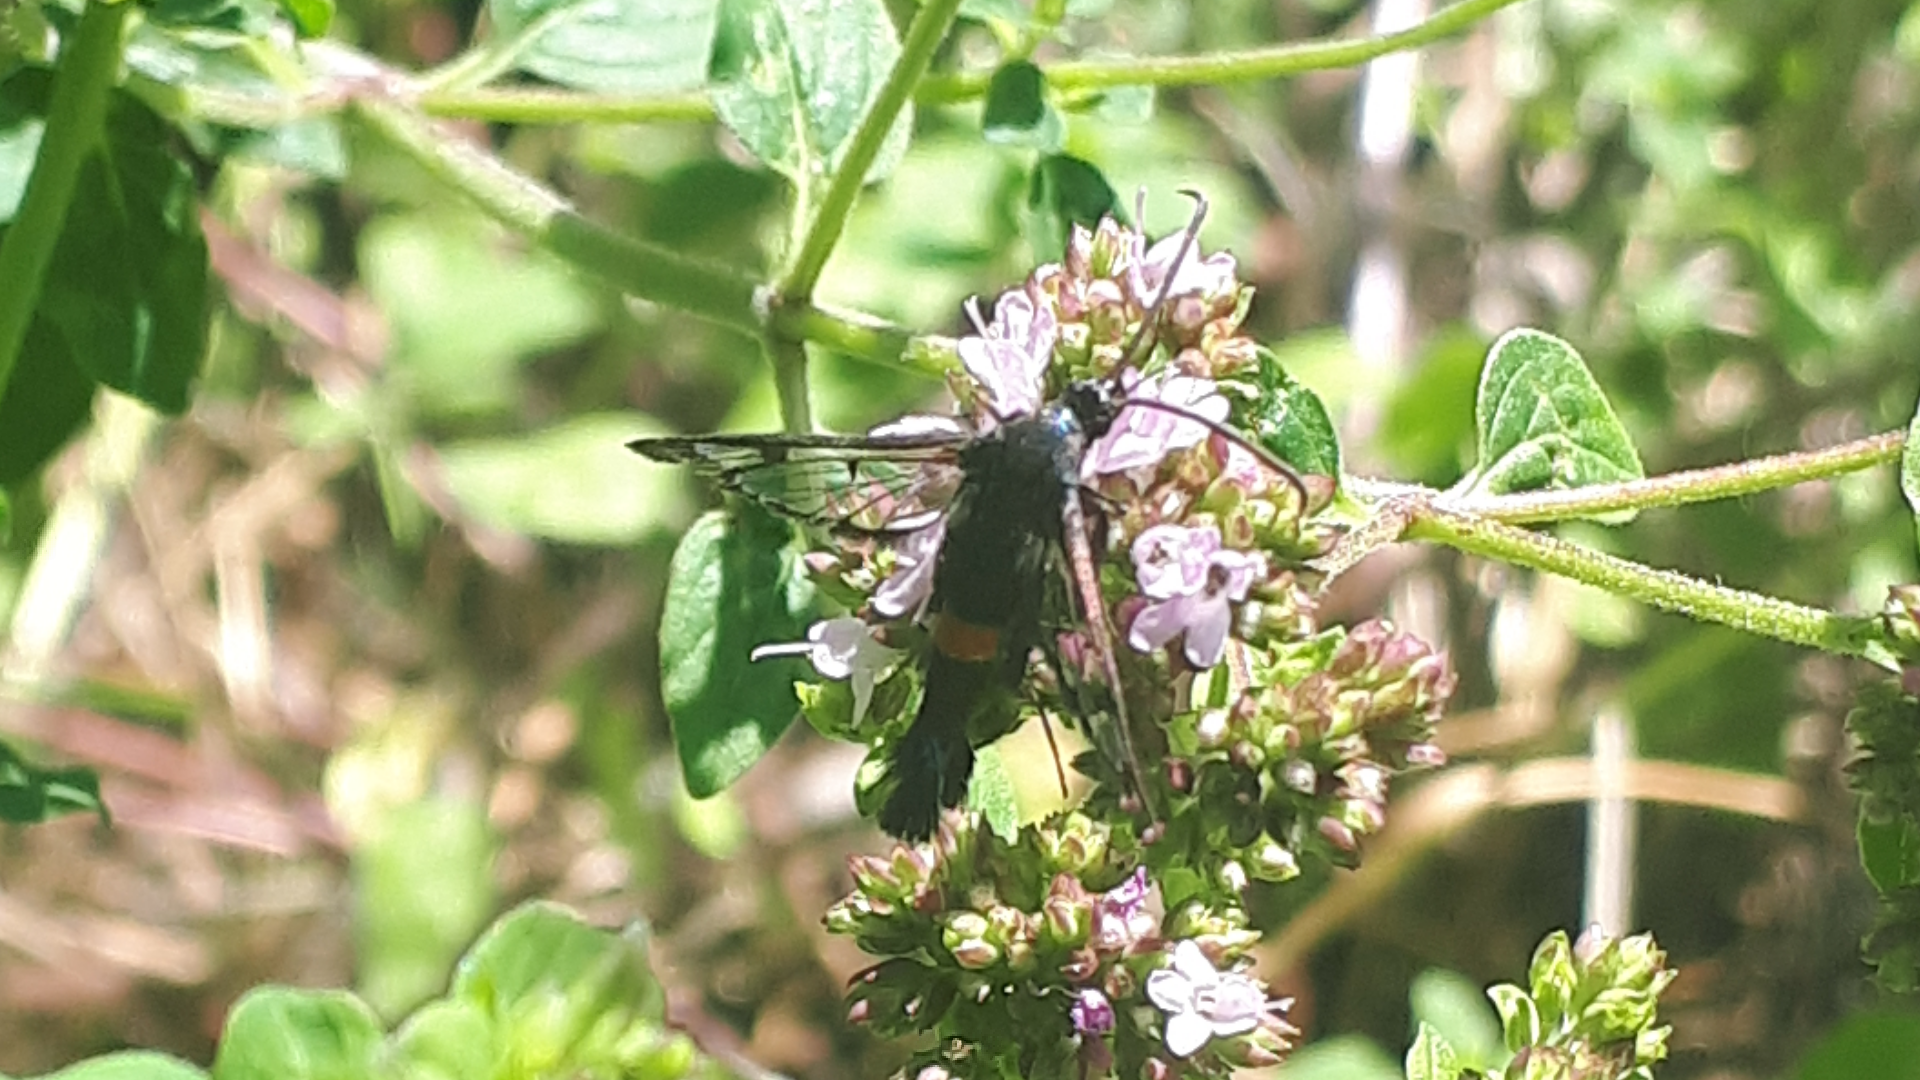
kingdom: Animalia
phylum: Arthropoda
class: Insecta
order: Lepidoptera
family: Sesiidae
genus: Synanthedon
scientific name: Synanthedon myopaeformis
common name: Red-belted clearwing
